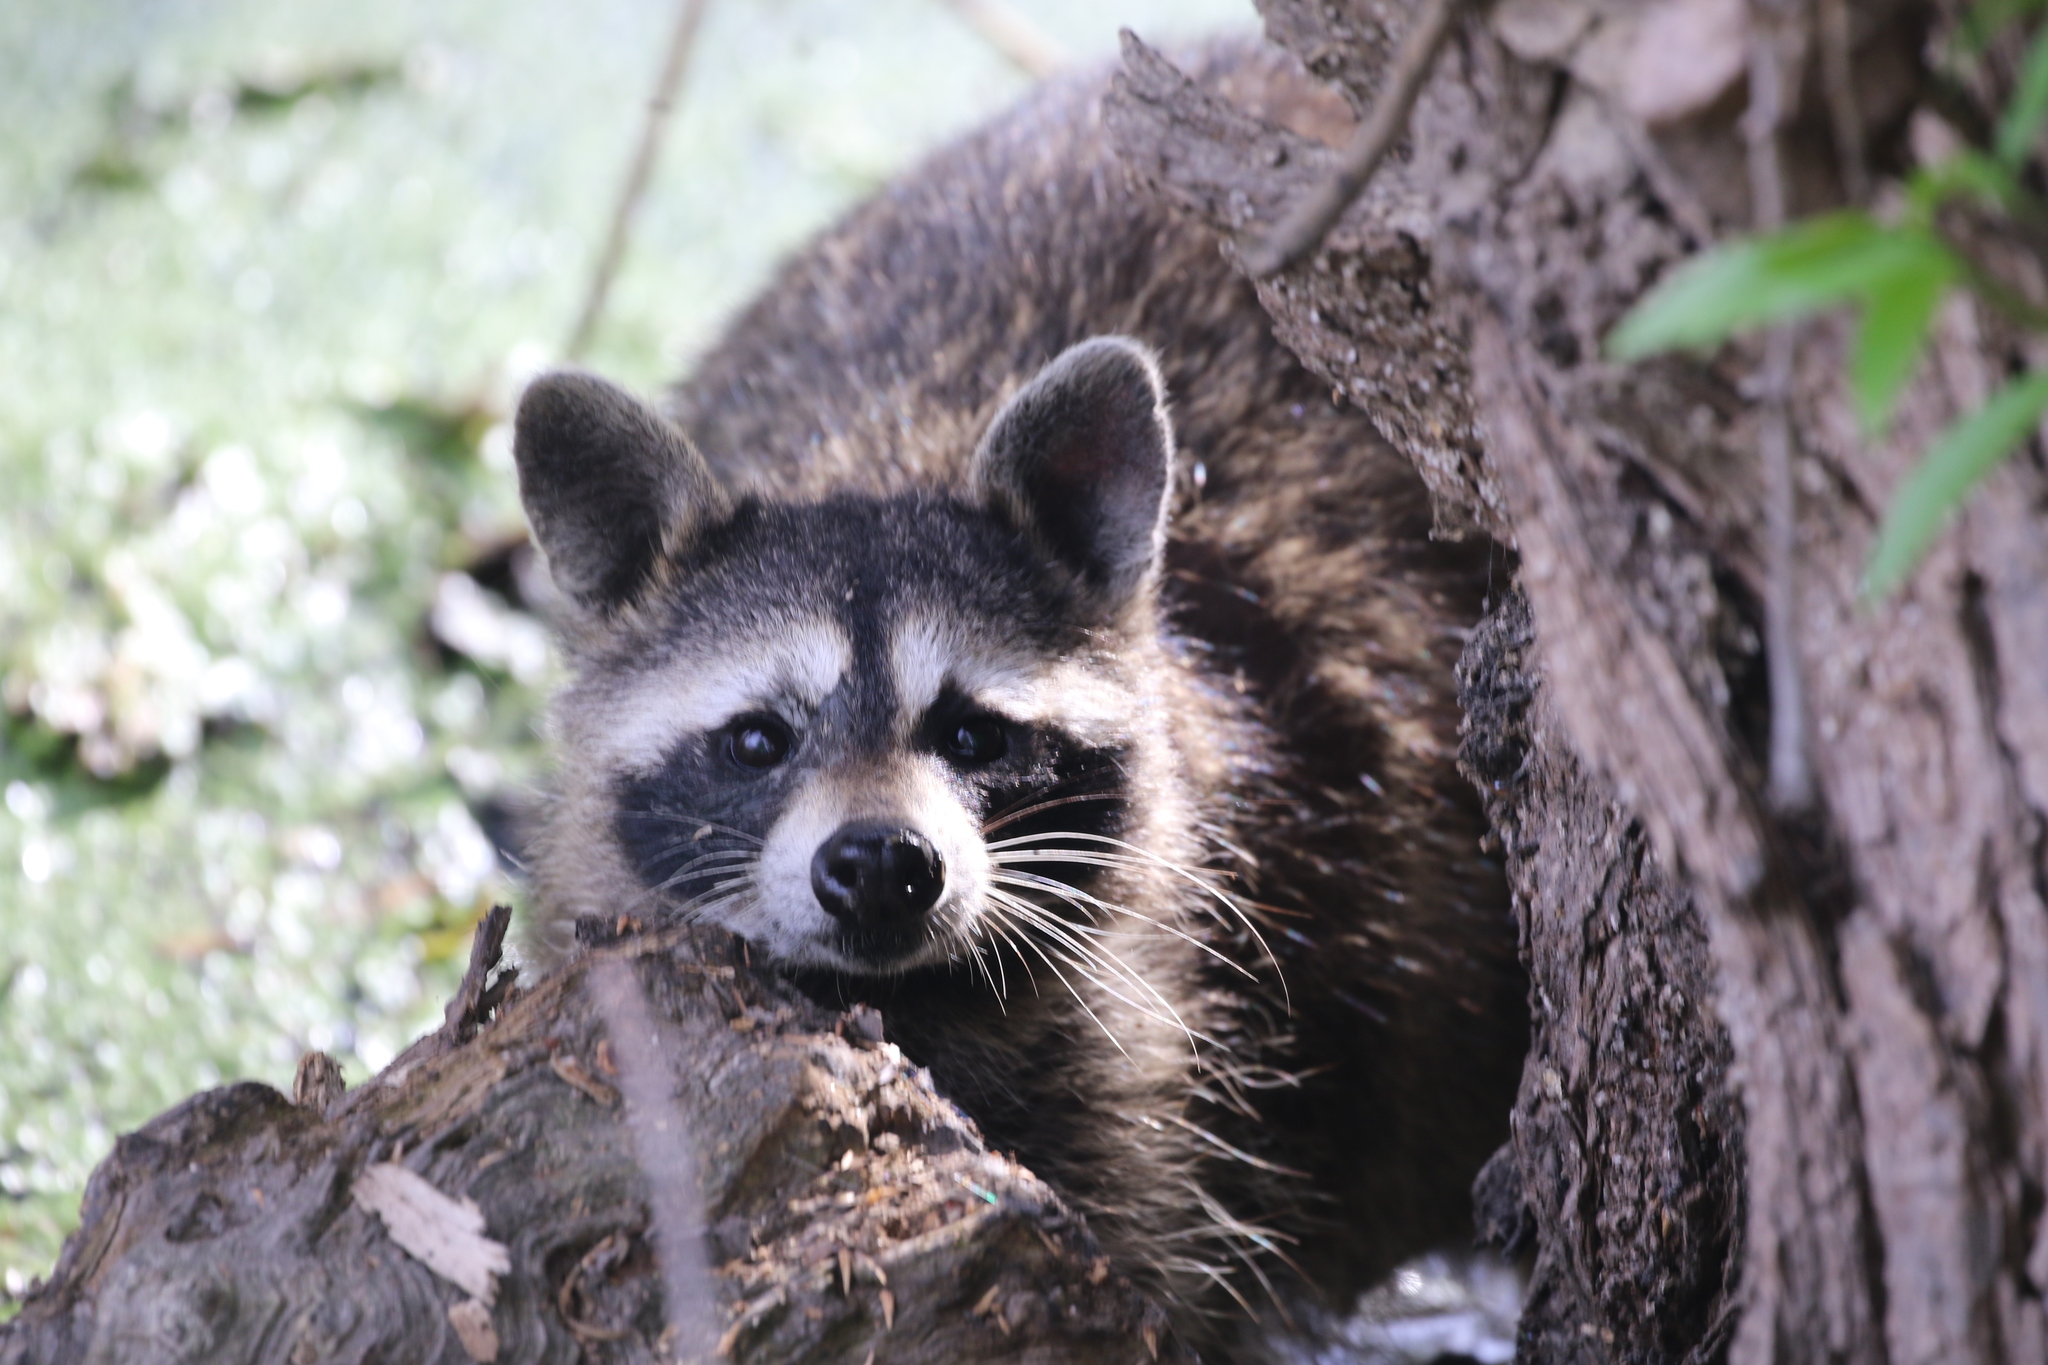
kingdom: Animalia
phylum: Chordata
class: Mammalia
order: Carnivora
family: Procyonidae
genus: Procyon
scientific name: Procyon lotor
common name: Raccoon
